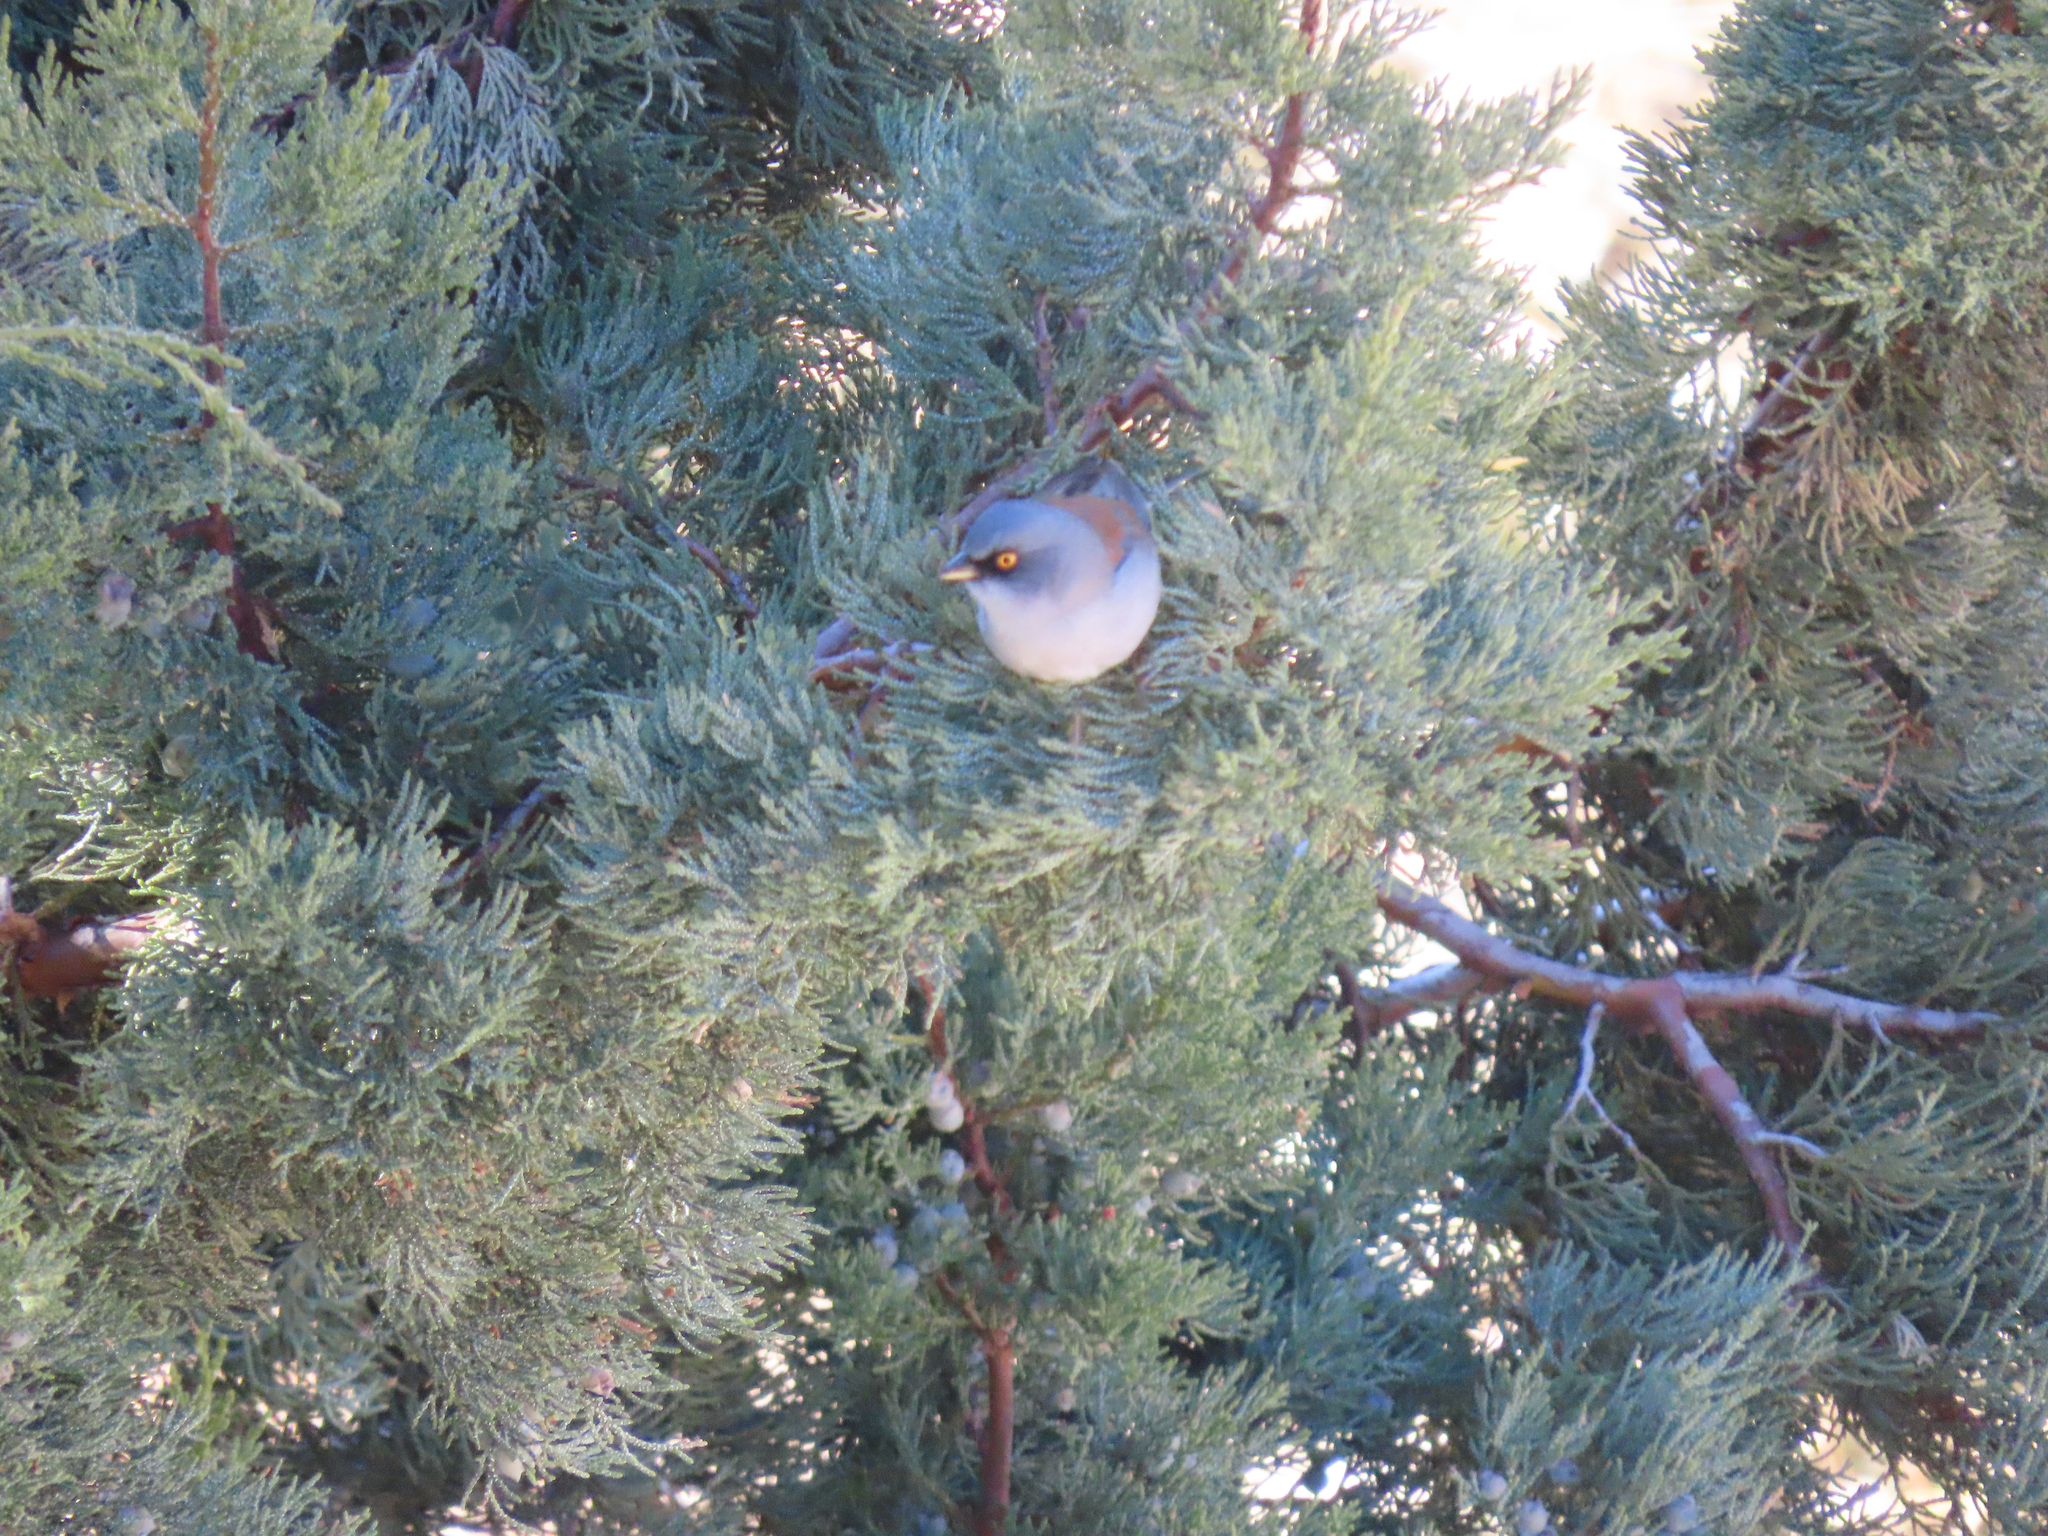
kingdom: Animalia
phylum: Chordata
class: Aves
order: Passeriformes
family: Passerellidae
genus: Junco
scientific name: Junco phaeonotus
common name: Yellow-eyed junco
